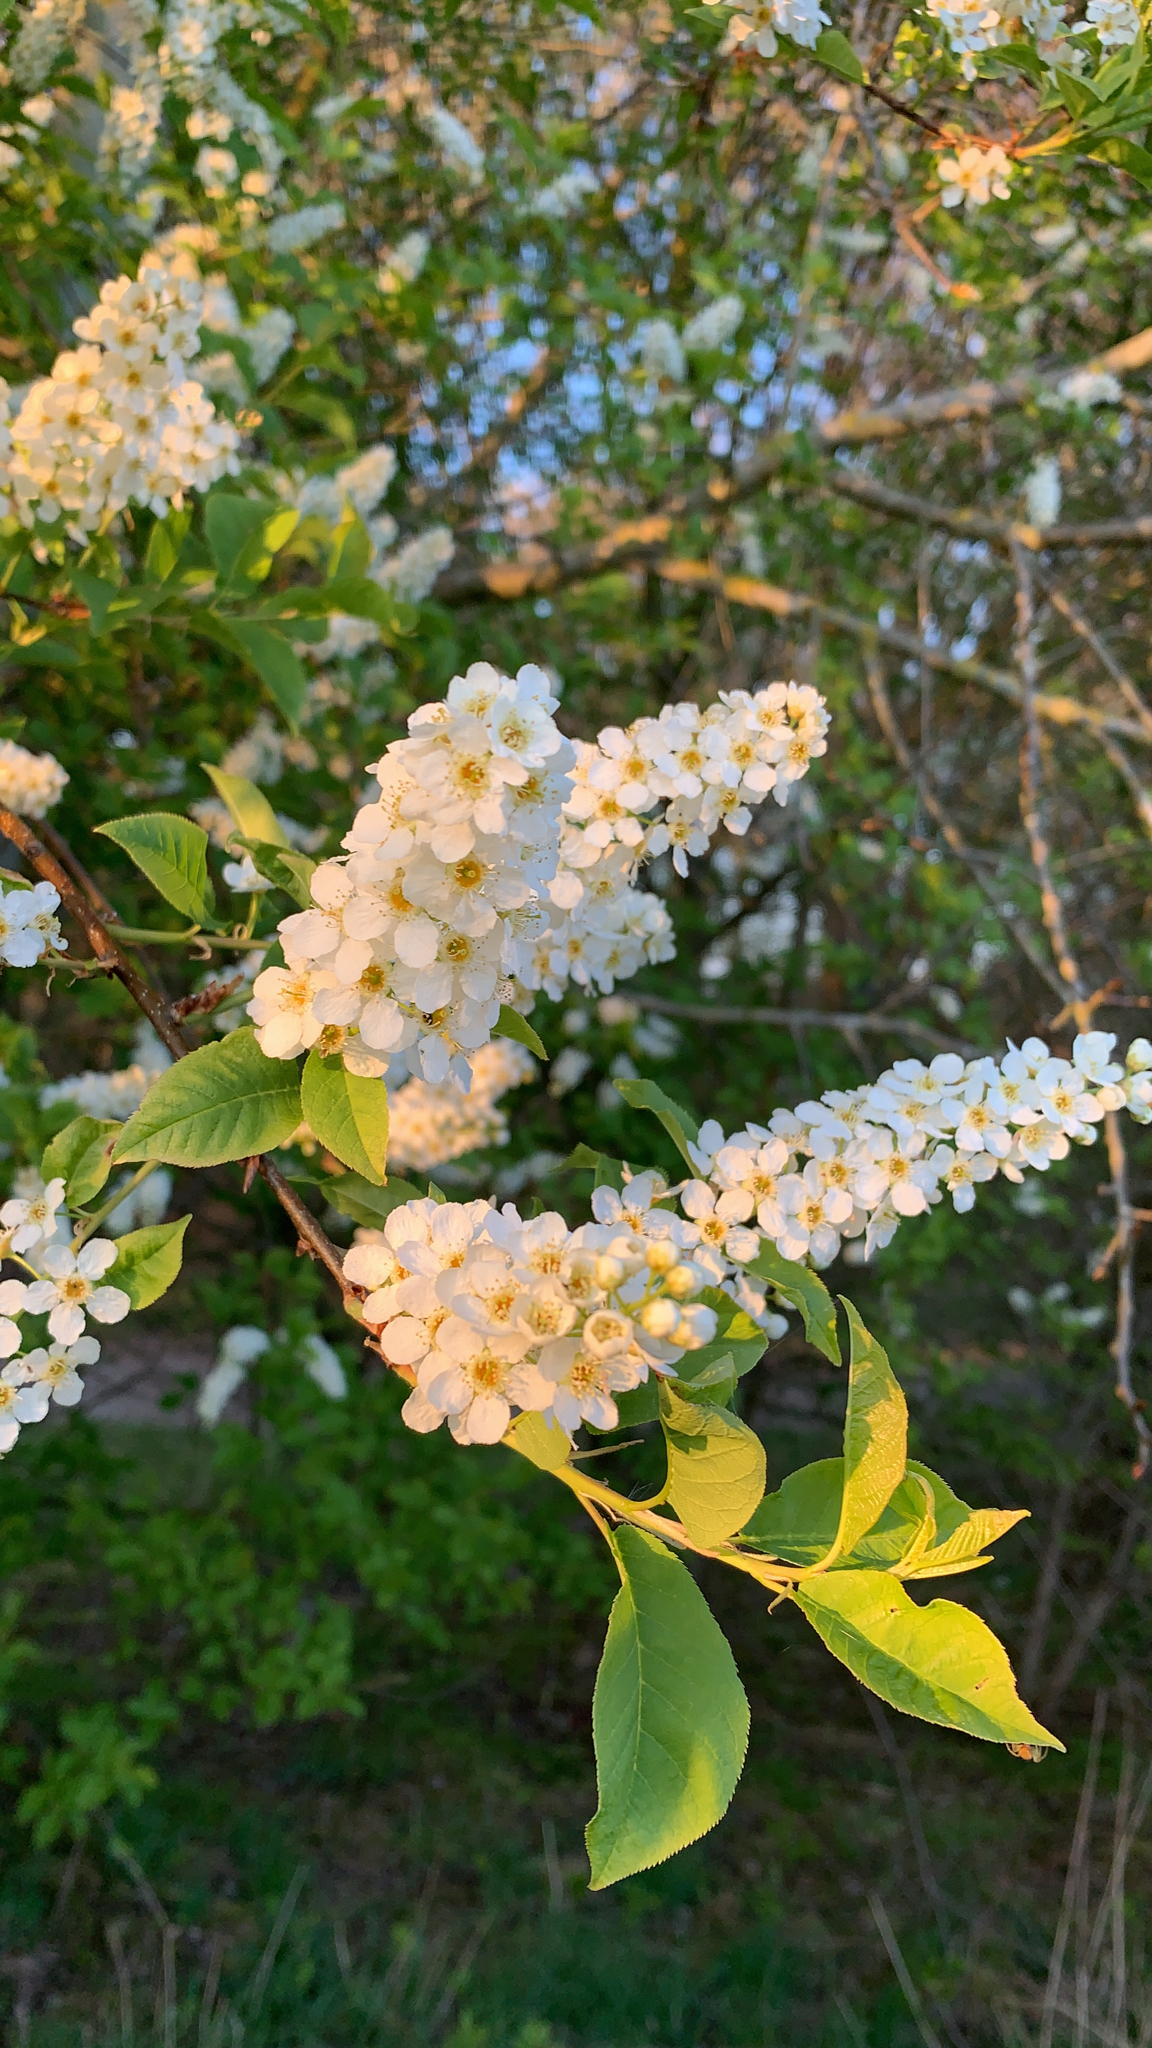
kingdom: Plantae
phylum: Tracheophyta
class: Magnoliopsida
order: Rosales
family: Rosaceae
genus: Prunus
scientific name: Prunus padus
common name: Bird cherry
